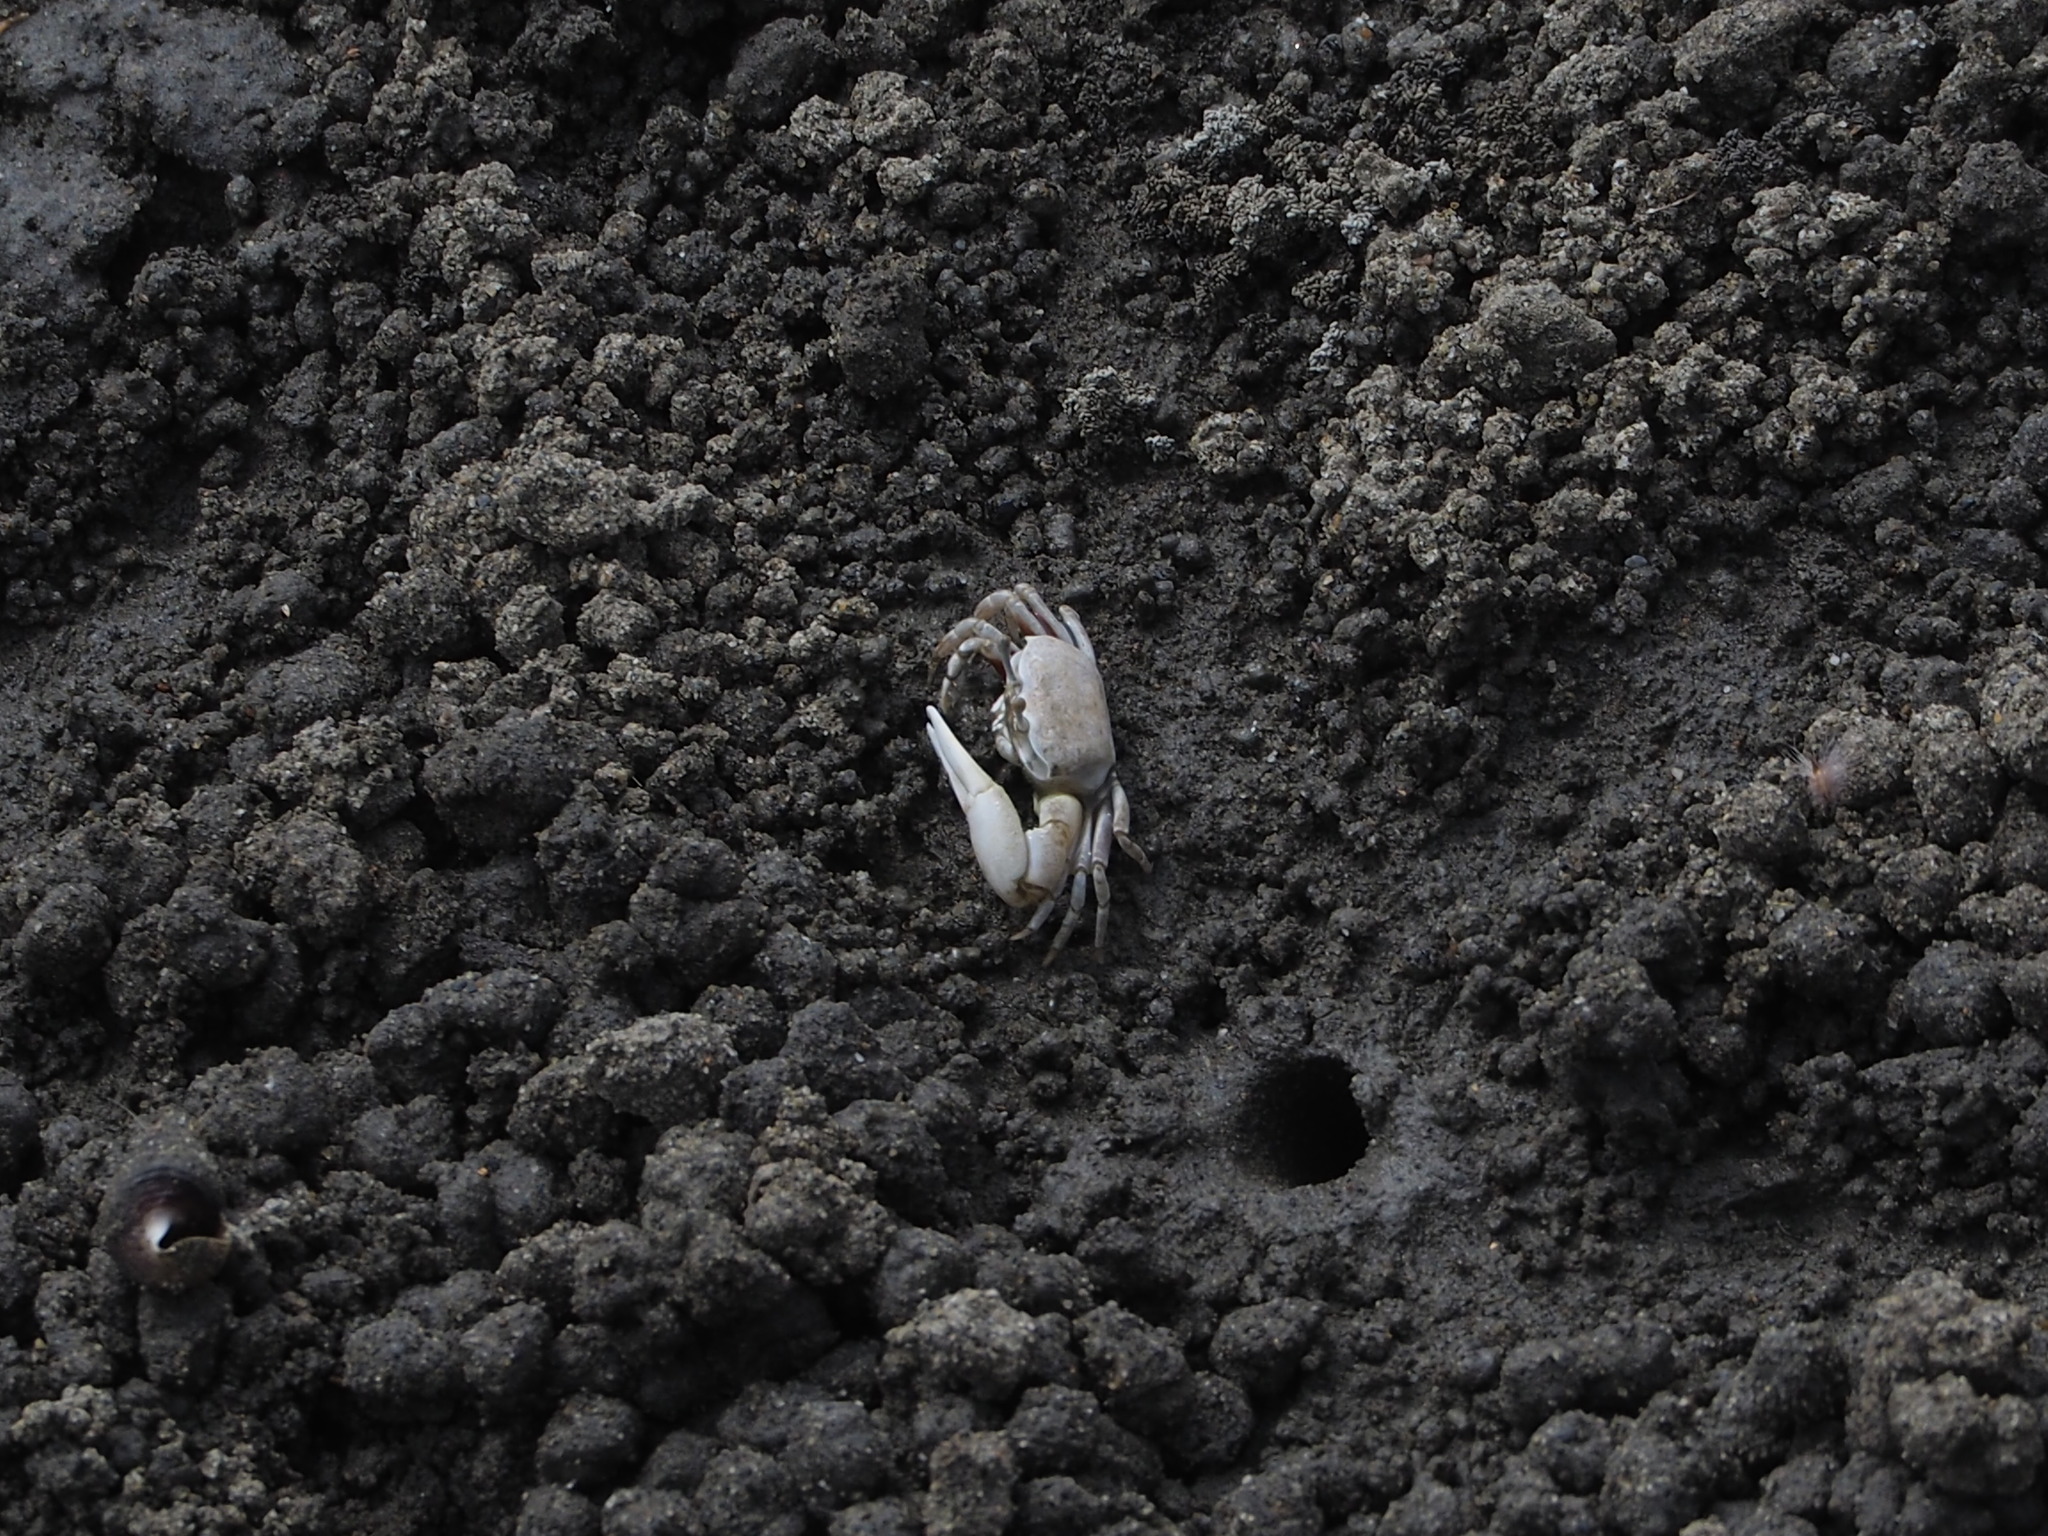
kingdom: Animalia
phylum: Arthropoda
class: Malacostraca
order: Decapoda
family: Ocypodidae
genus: Austruca
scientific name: Austruca lactea
